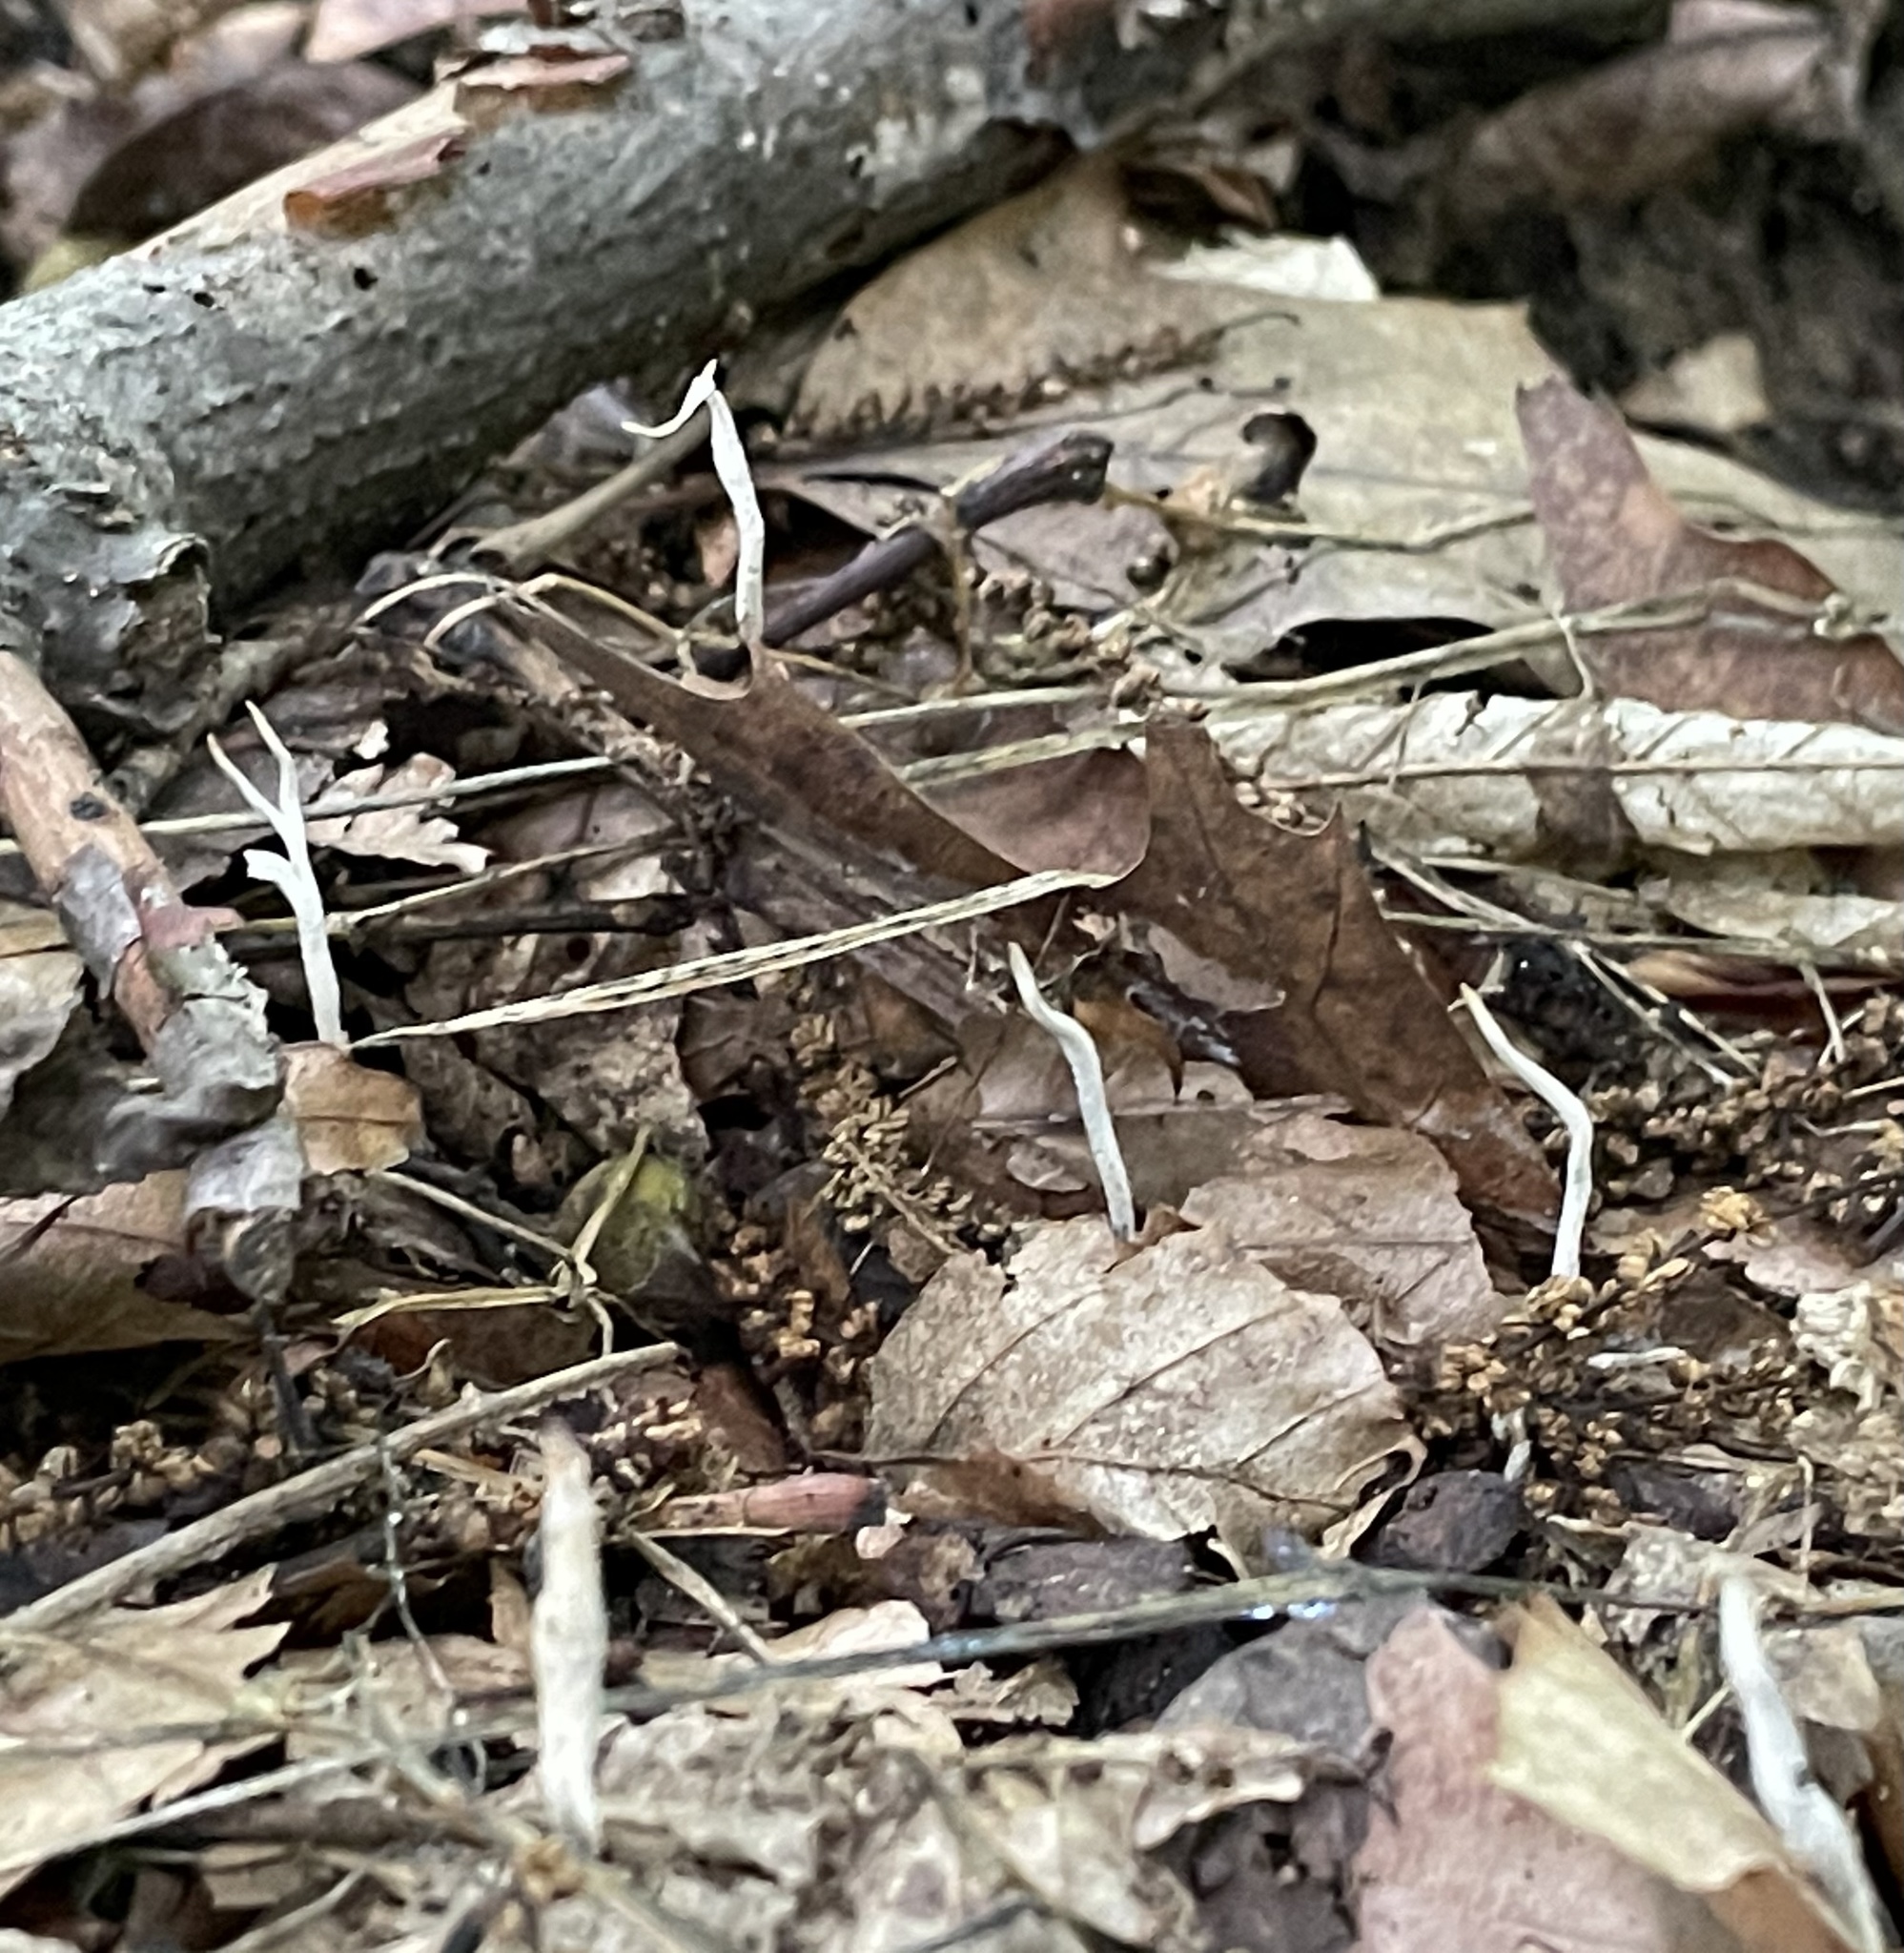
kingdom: Fungi
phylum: Ascomycota
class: Sordariomycetes
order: Xylariales
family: Xylariaceae
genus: Xylaria
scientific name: Xylaria hypoxylon
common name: Candle-snuff fungus
